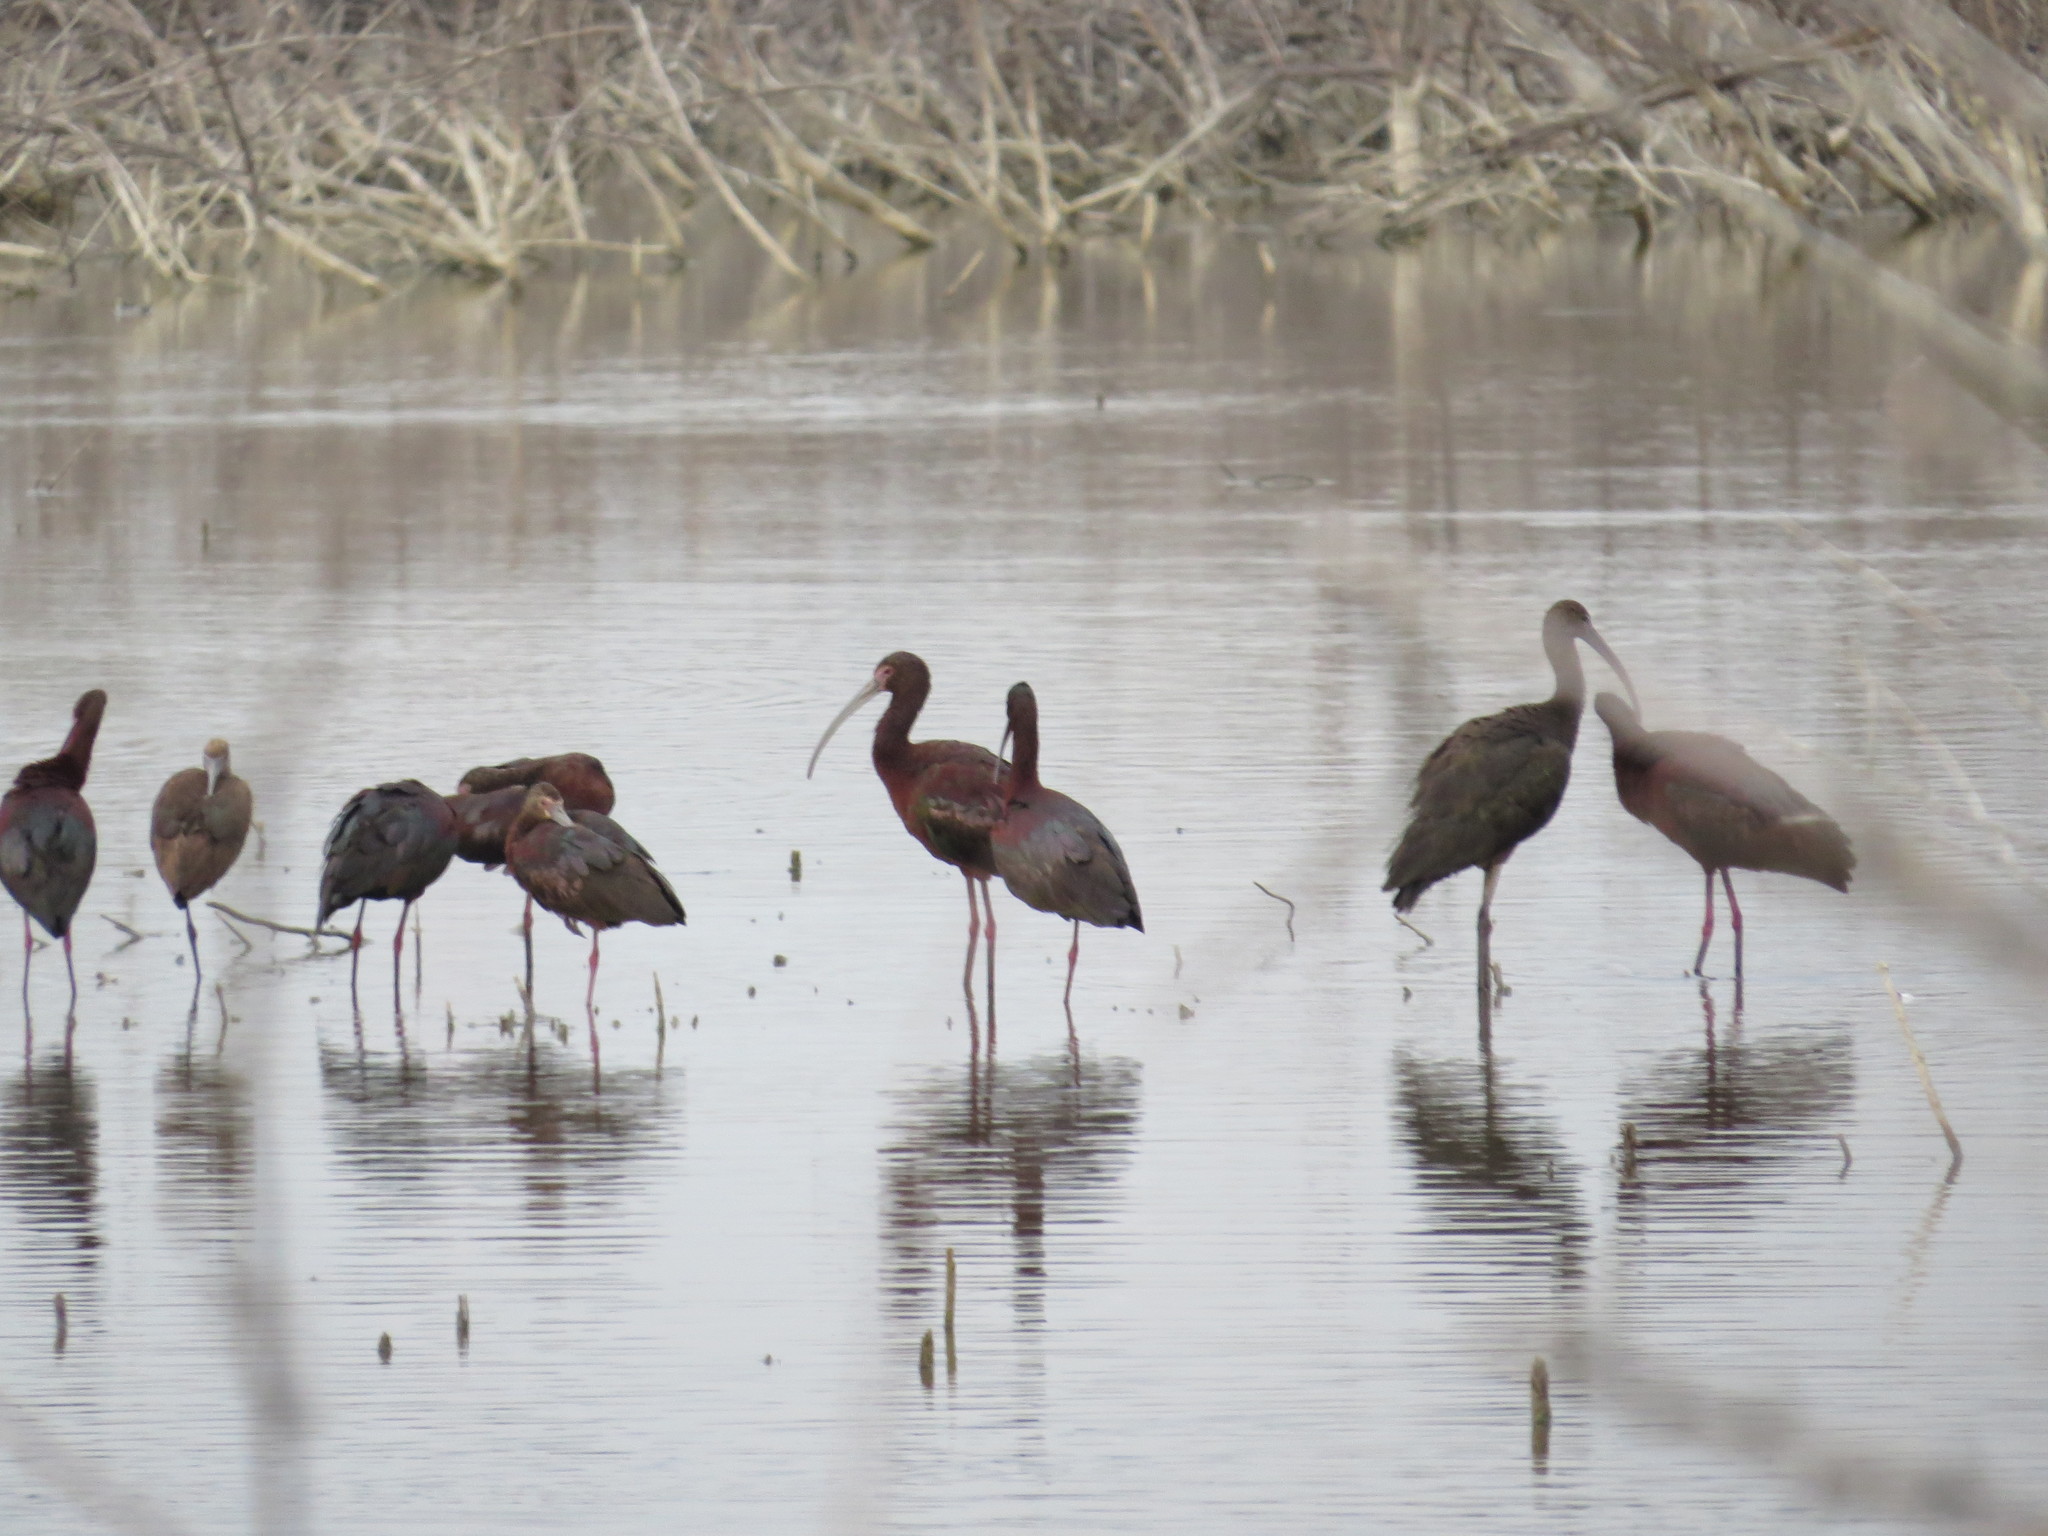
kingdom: Animalia
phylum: Chordata
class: Aves
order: Pelecaniformes
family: Threskiornithidae
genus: Plegadis
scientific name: Plegadis chihi
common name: White-faced ibis
